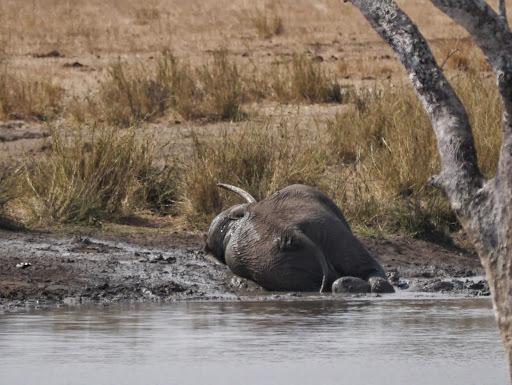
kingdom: Animalia
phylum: Chordata
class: Mammalia
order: Proboscidea
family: Elephantidae
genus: Loxodonta
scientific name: Loxodonta africana
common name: African elephant
